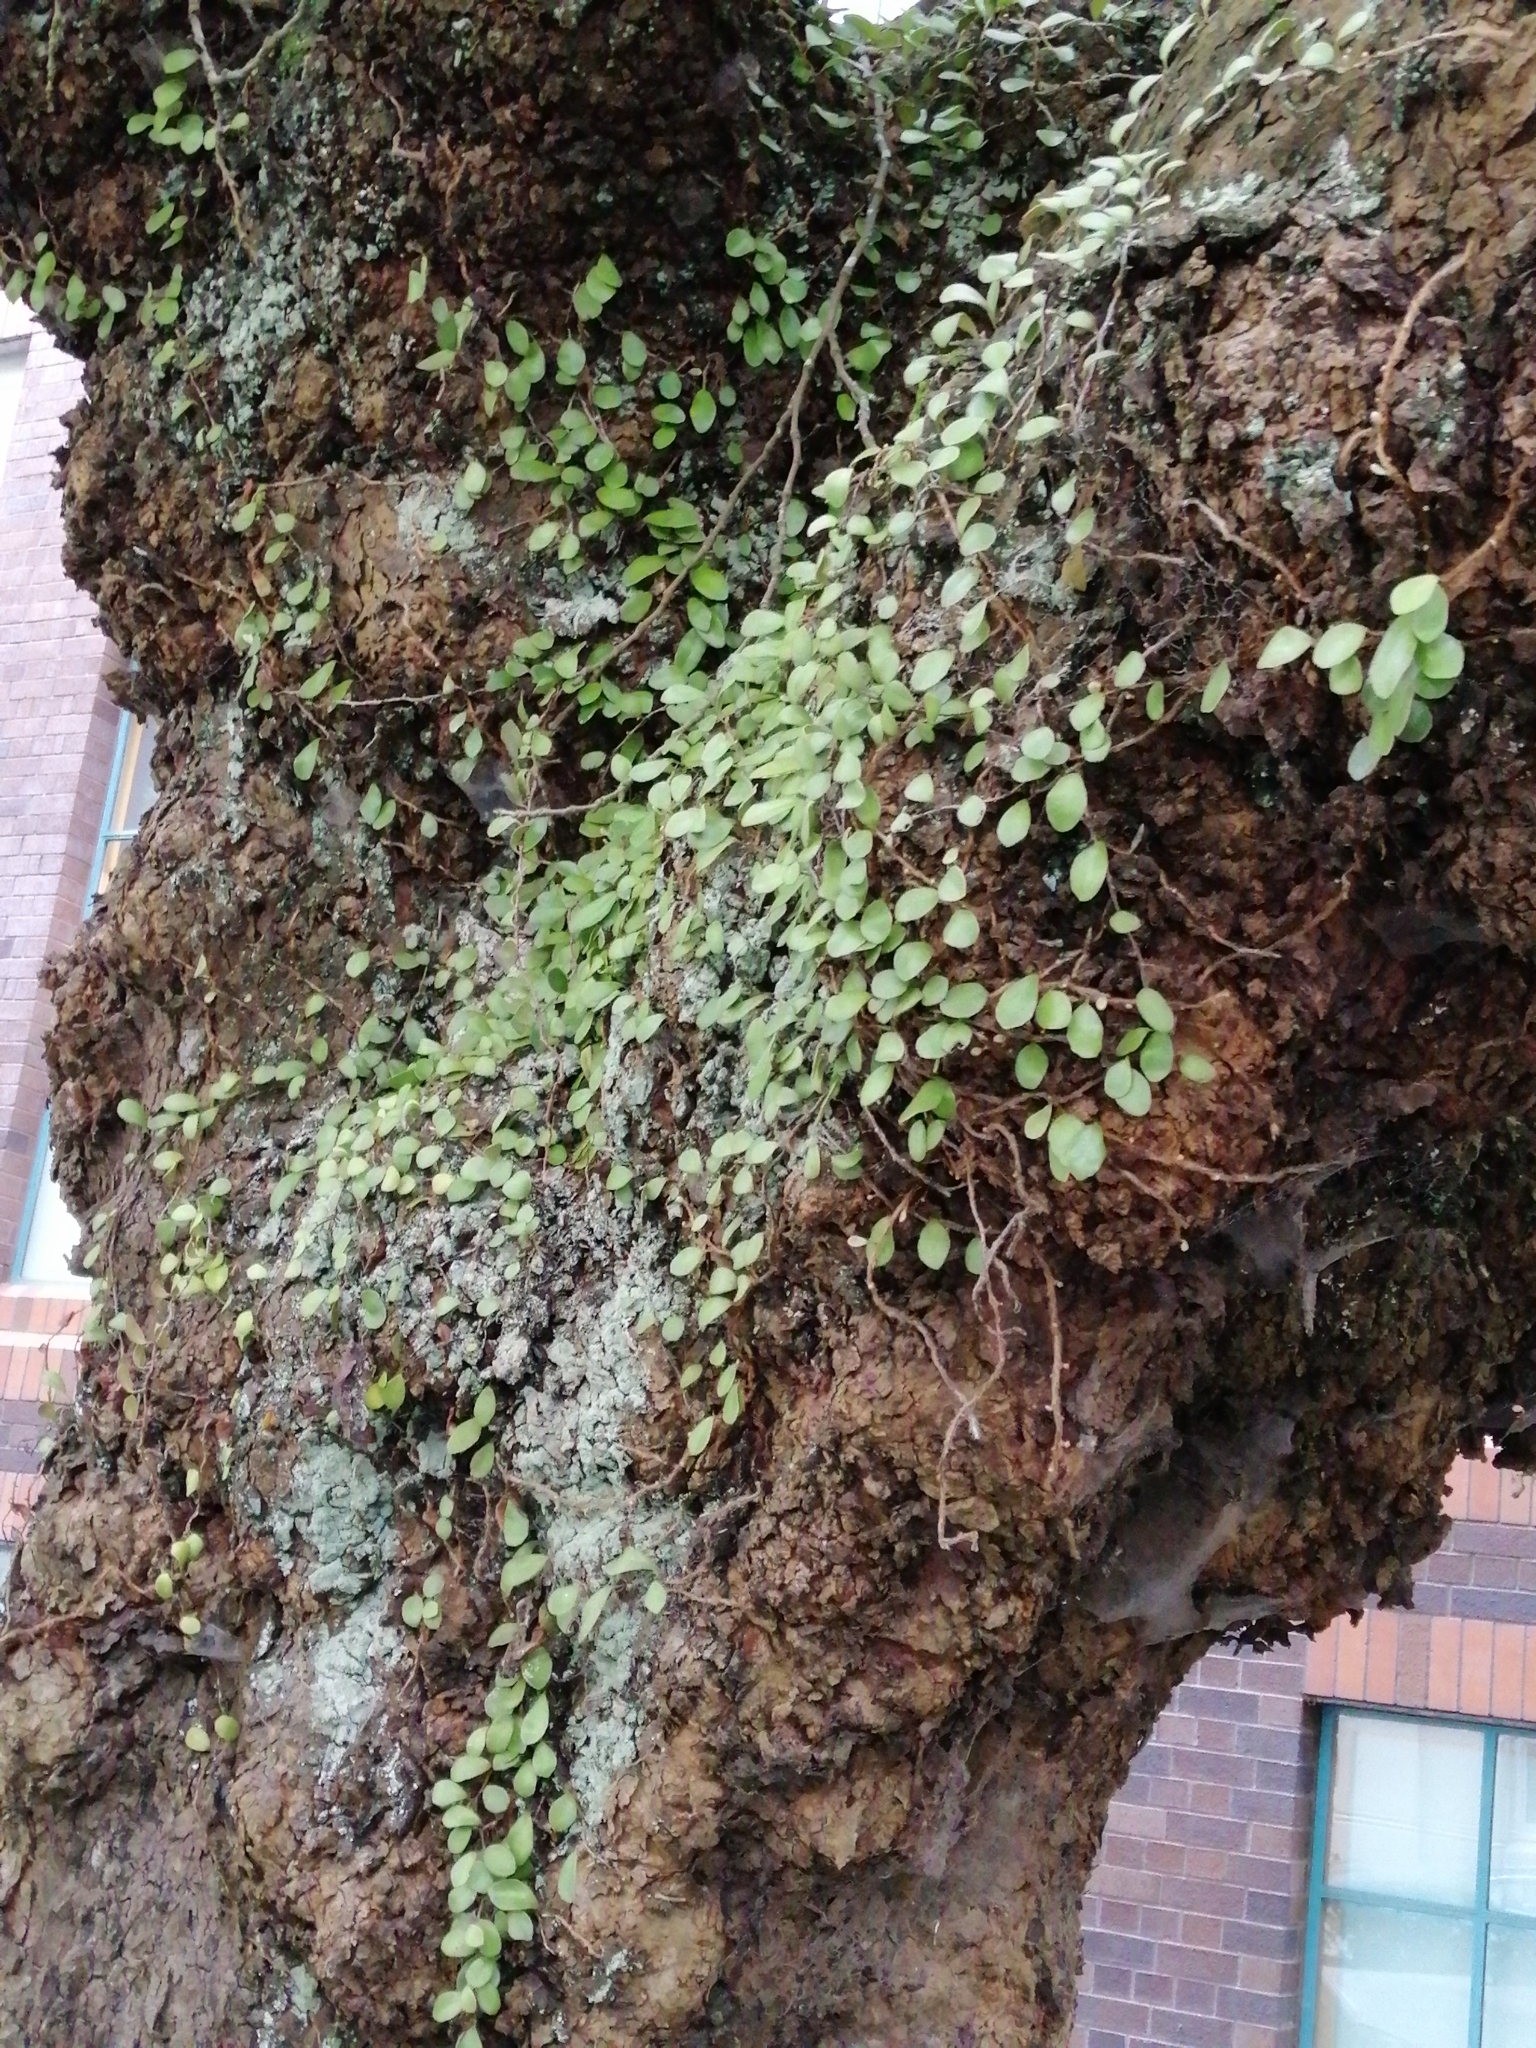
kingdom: Plantae
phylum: Tracheophyta
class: Polypodiopsida
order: Polypodiales
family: Polypodiaceae
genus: Pyrrosia
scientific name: Pyrrosia eleagnifolia
